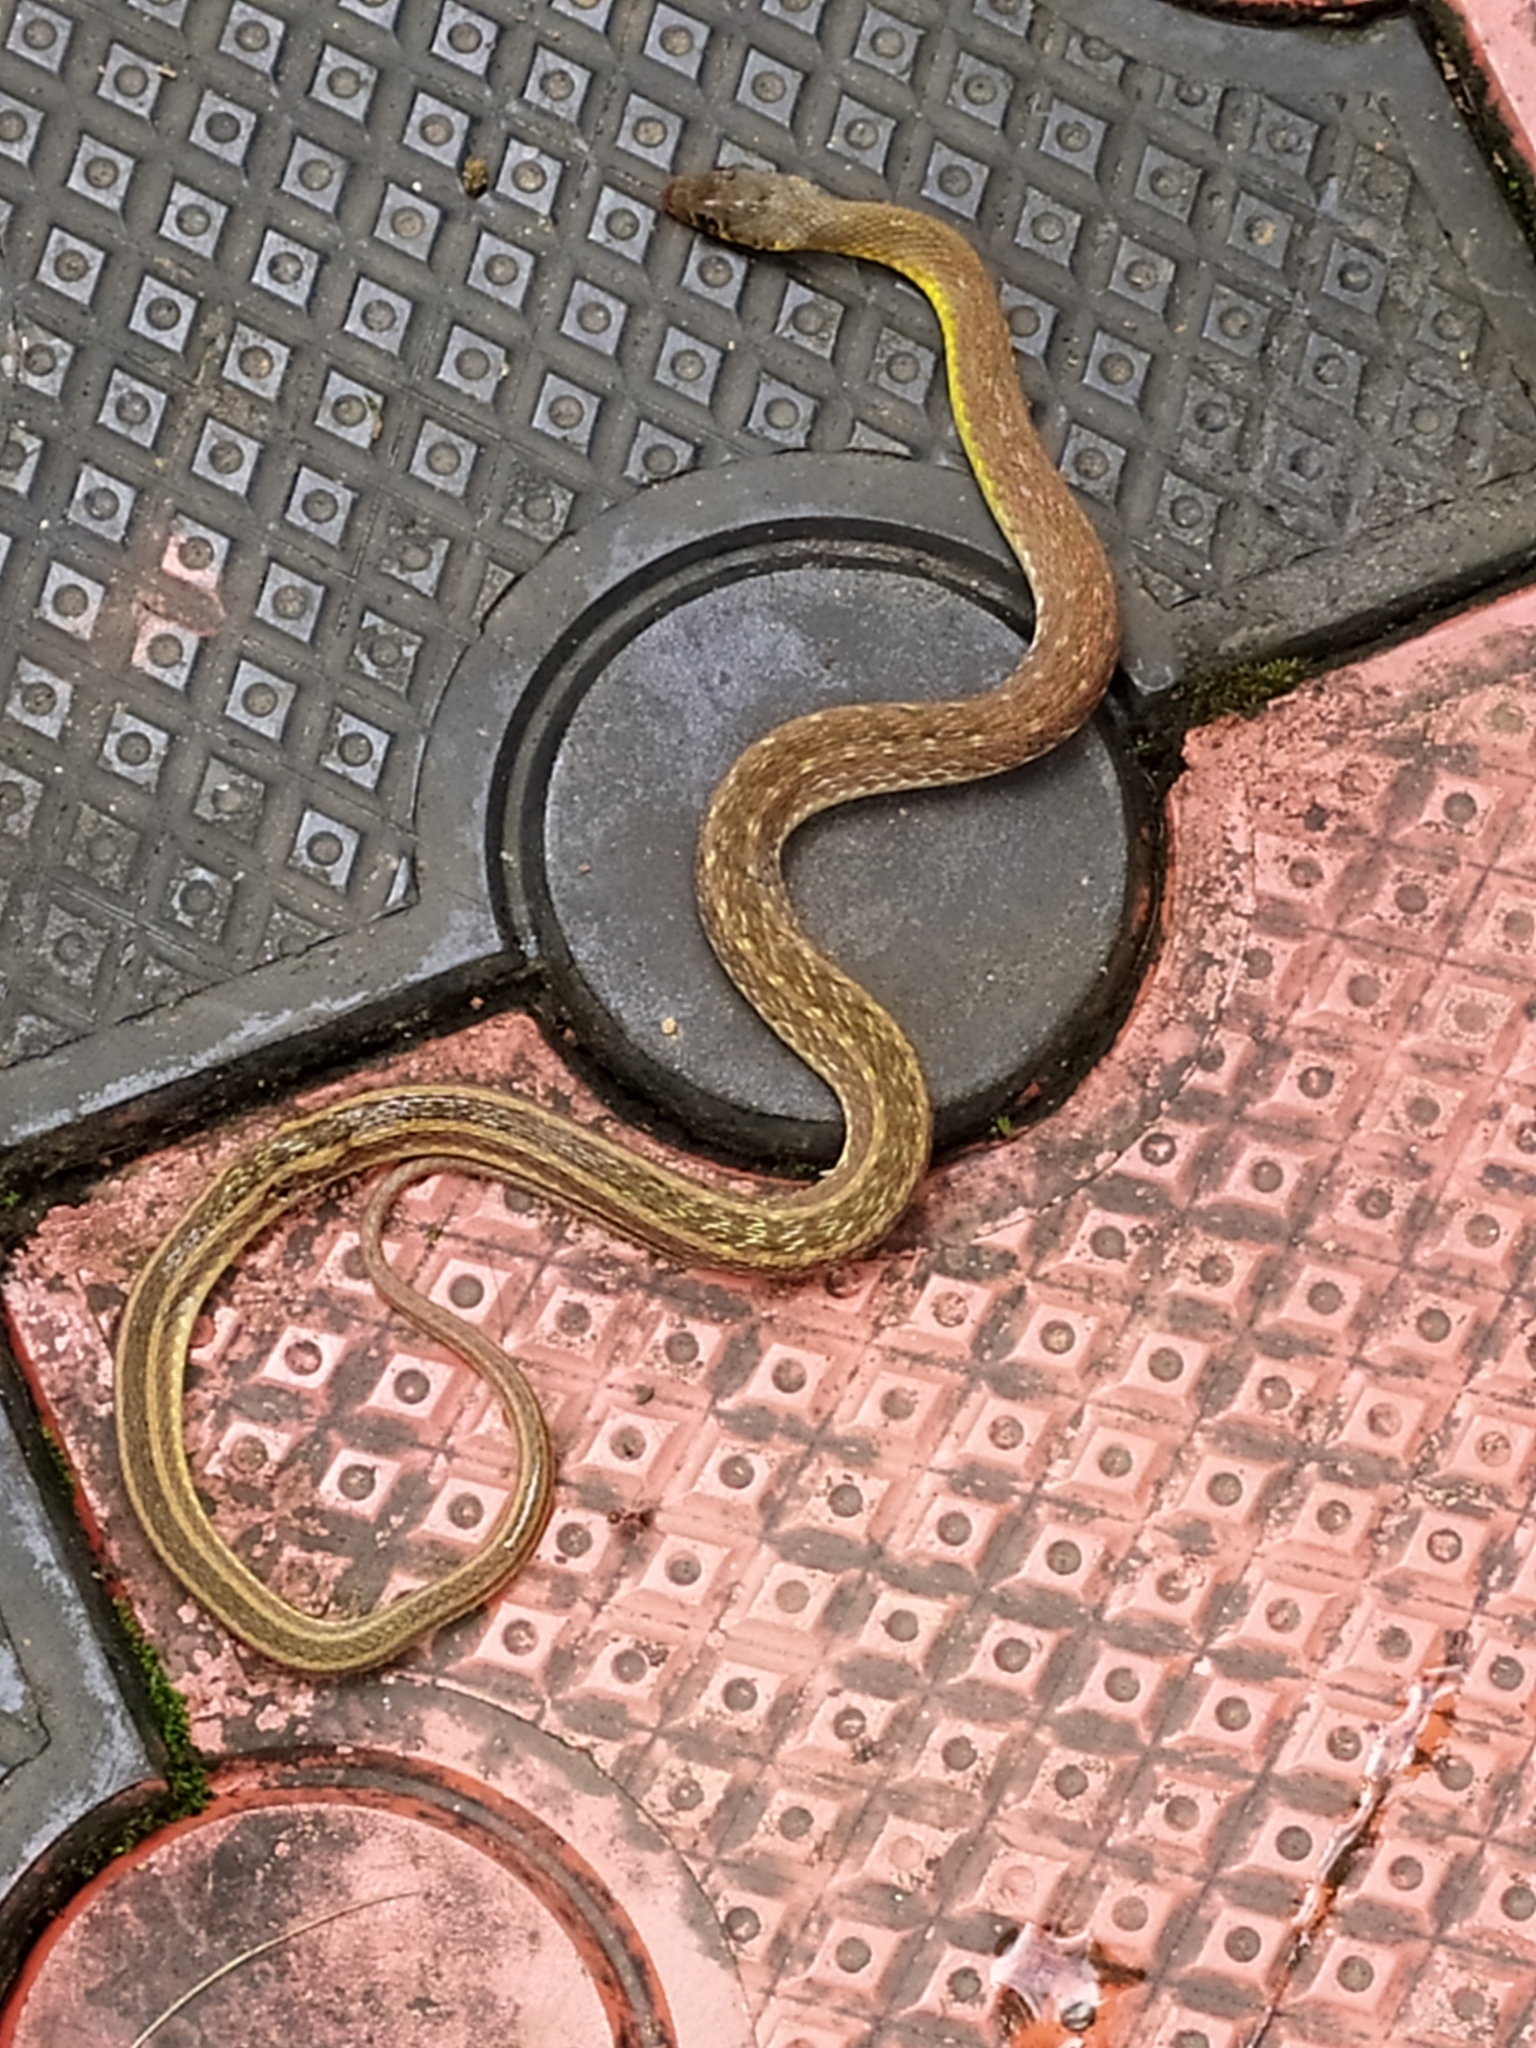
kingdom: Animalia
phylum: Chordata
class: Squamata
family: Colubridae
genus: Amphiesma
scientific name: Amphiesma stolatum
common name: Buff striped keelback
